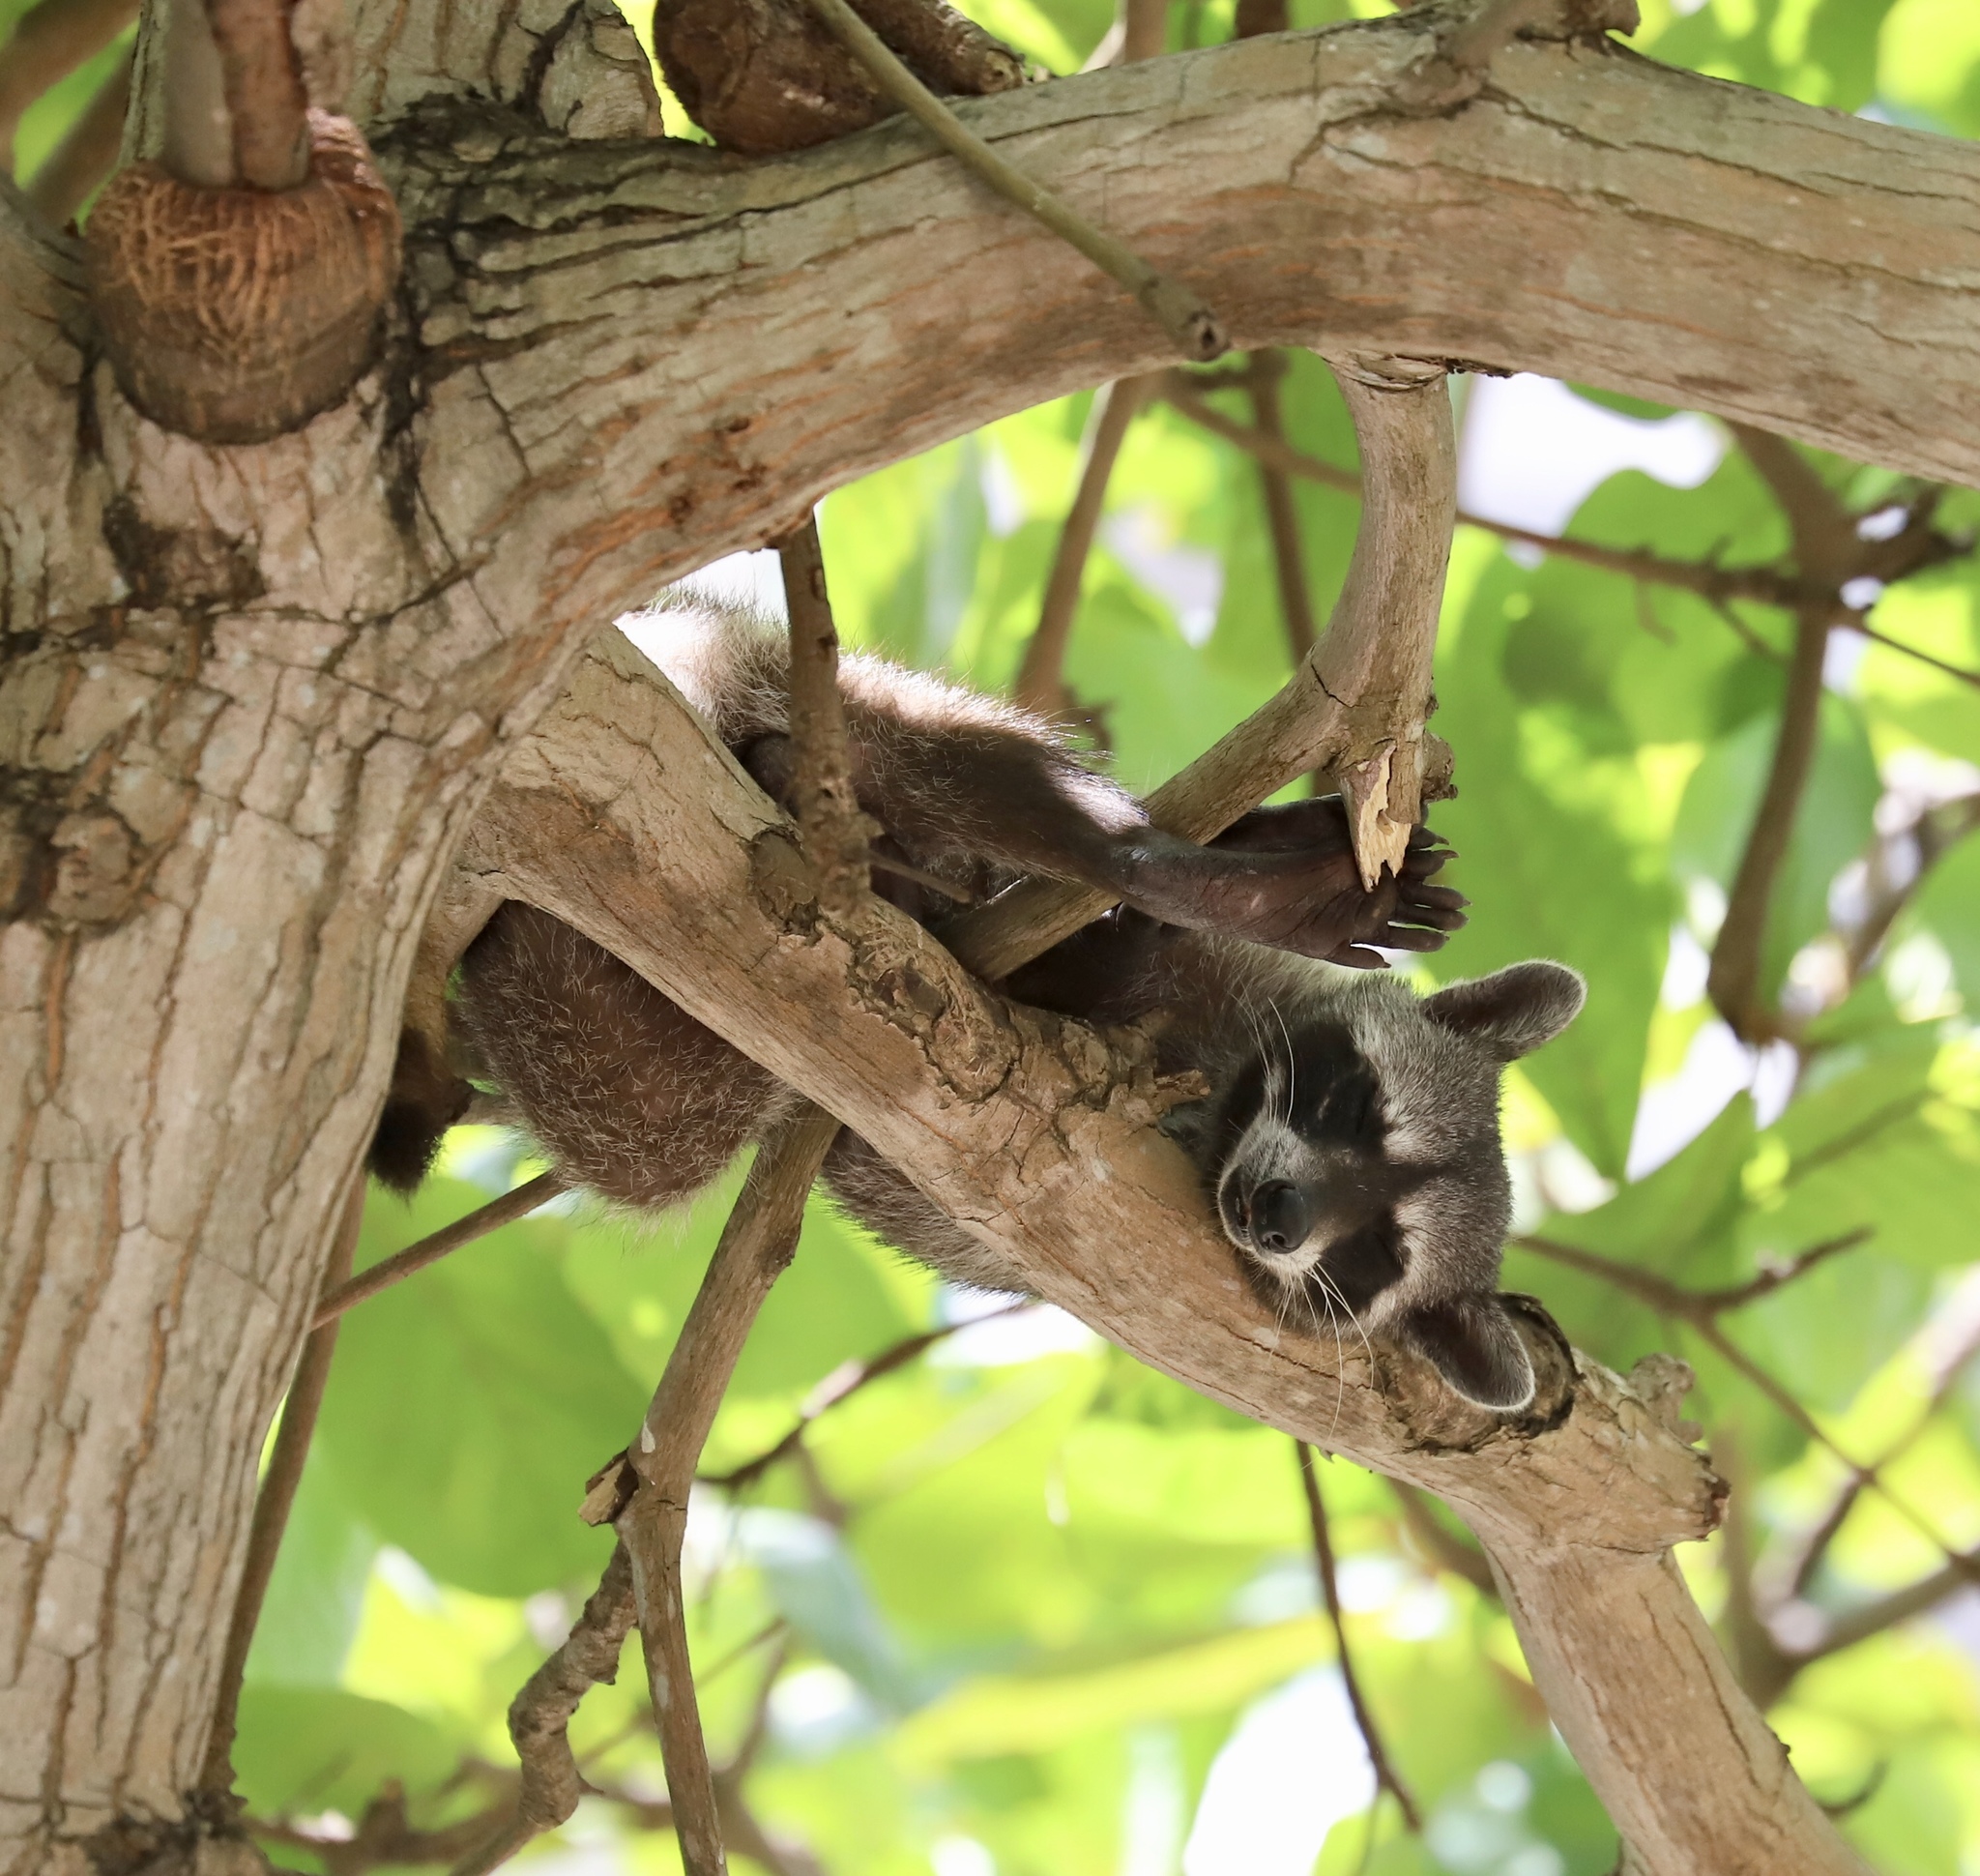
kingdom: Animalia
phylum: Chordata
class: Mammalia
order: Carnivora
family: Procyonidae
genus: Procyon
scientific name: Procyon lotor
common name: Raccoon
